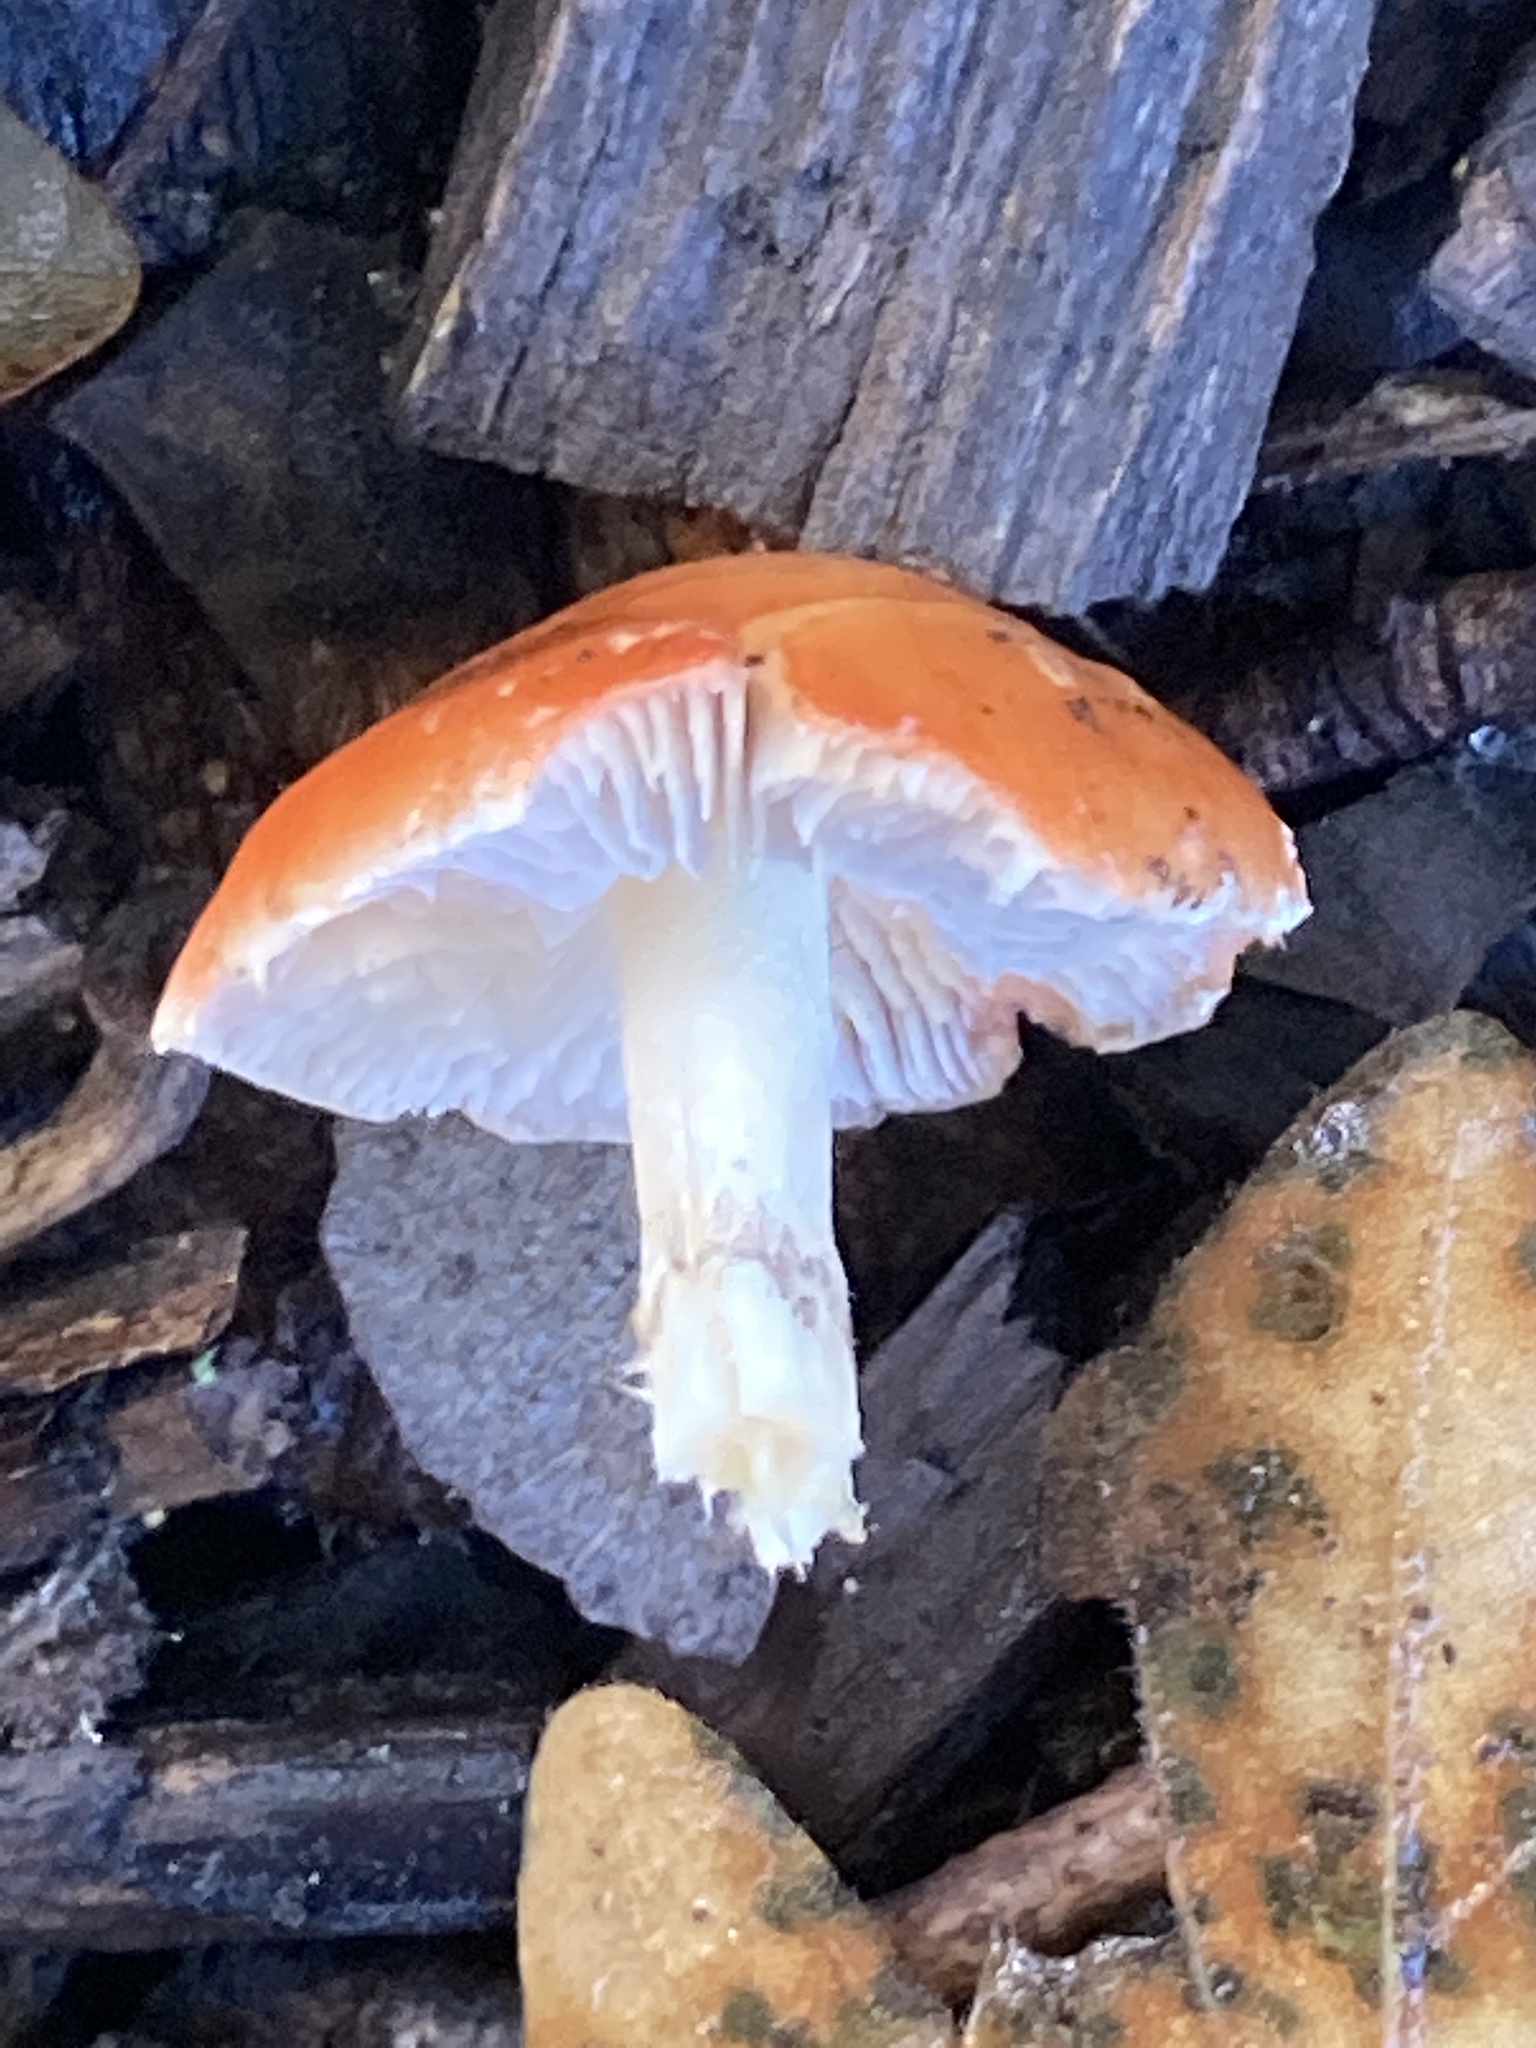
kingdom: Fungi
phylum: Basidiomycota
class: Agaricomycetes
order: Agaricales
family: Strophariaceae
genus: Leratiomyces
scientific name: Leratiomyces ceres
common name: Redlead roundhead
